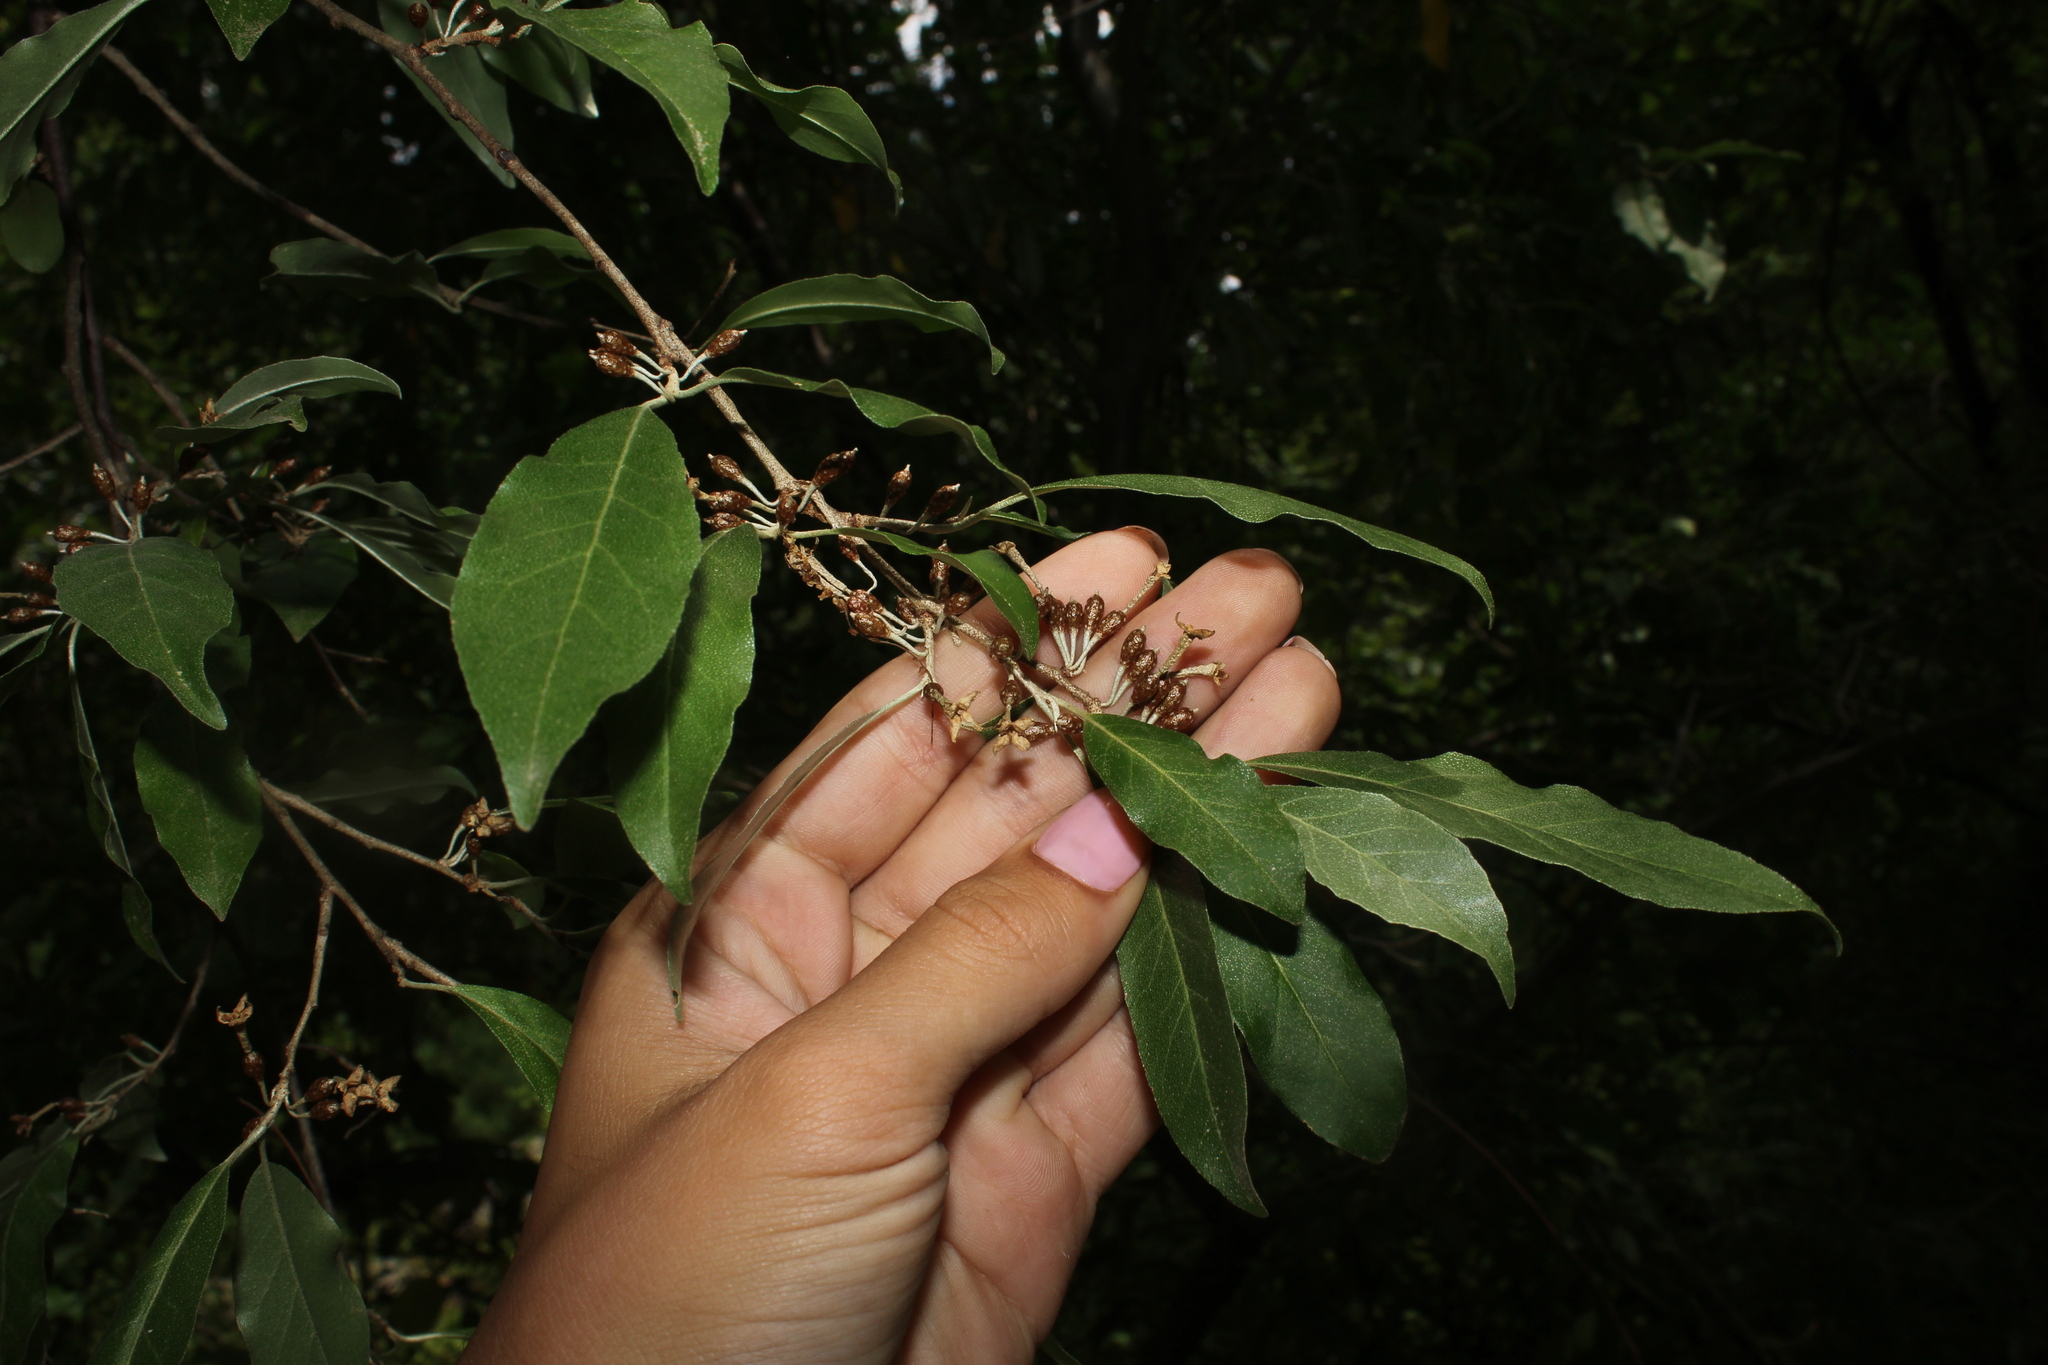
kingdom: Plantae
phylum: Tracheophyta
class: Magnoliopsida
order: Rosales
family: Elaeagnaceae
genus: Elaeagnus
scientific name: Elaeagnus umbellata
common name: Autumn olive
